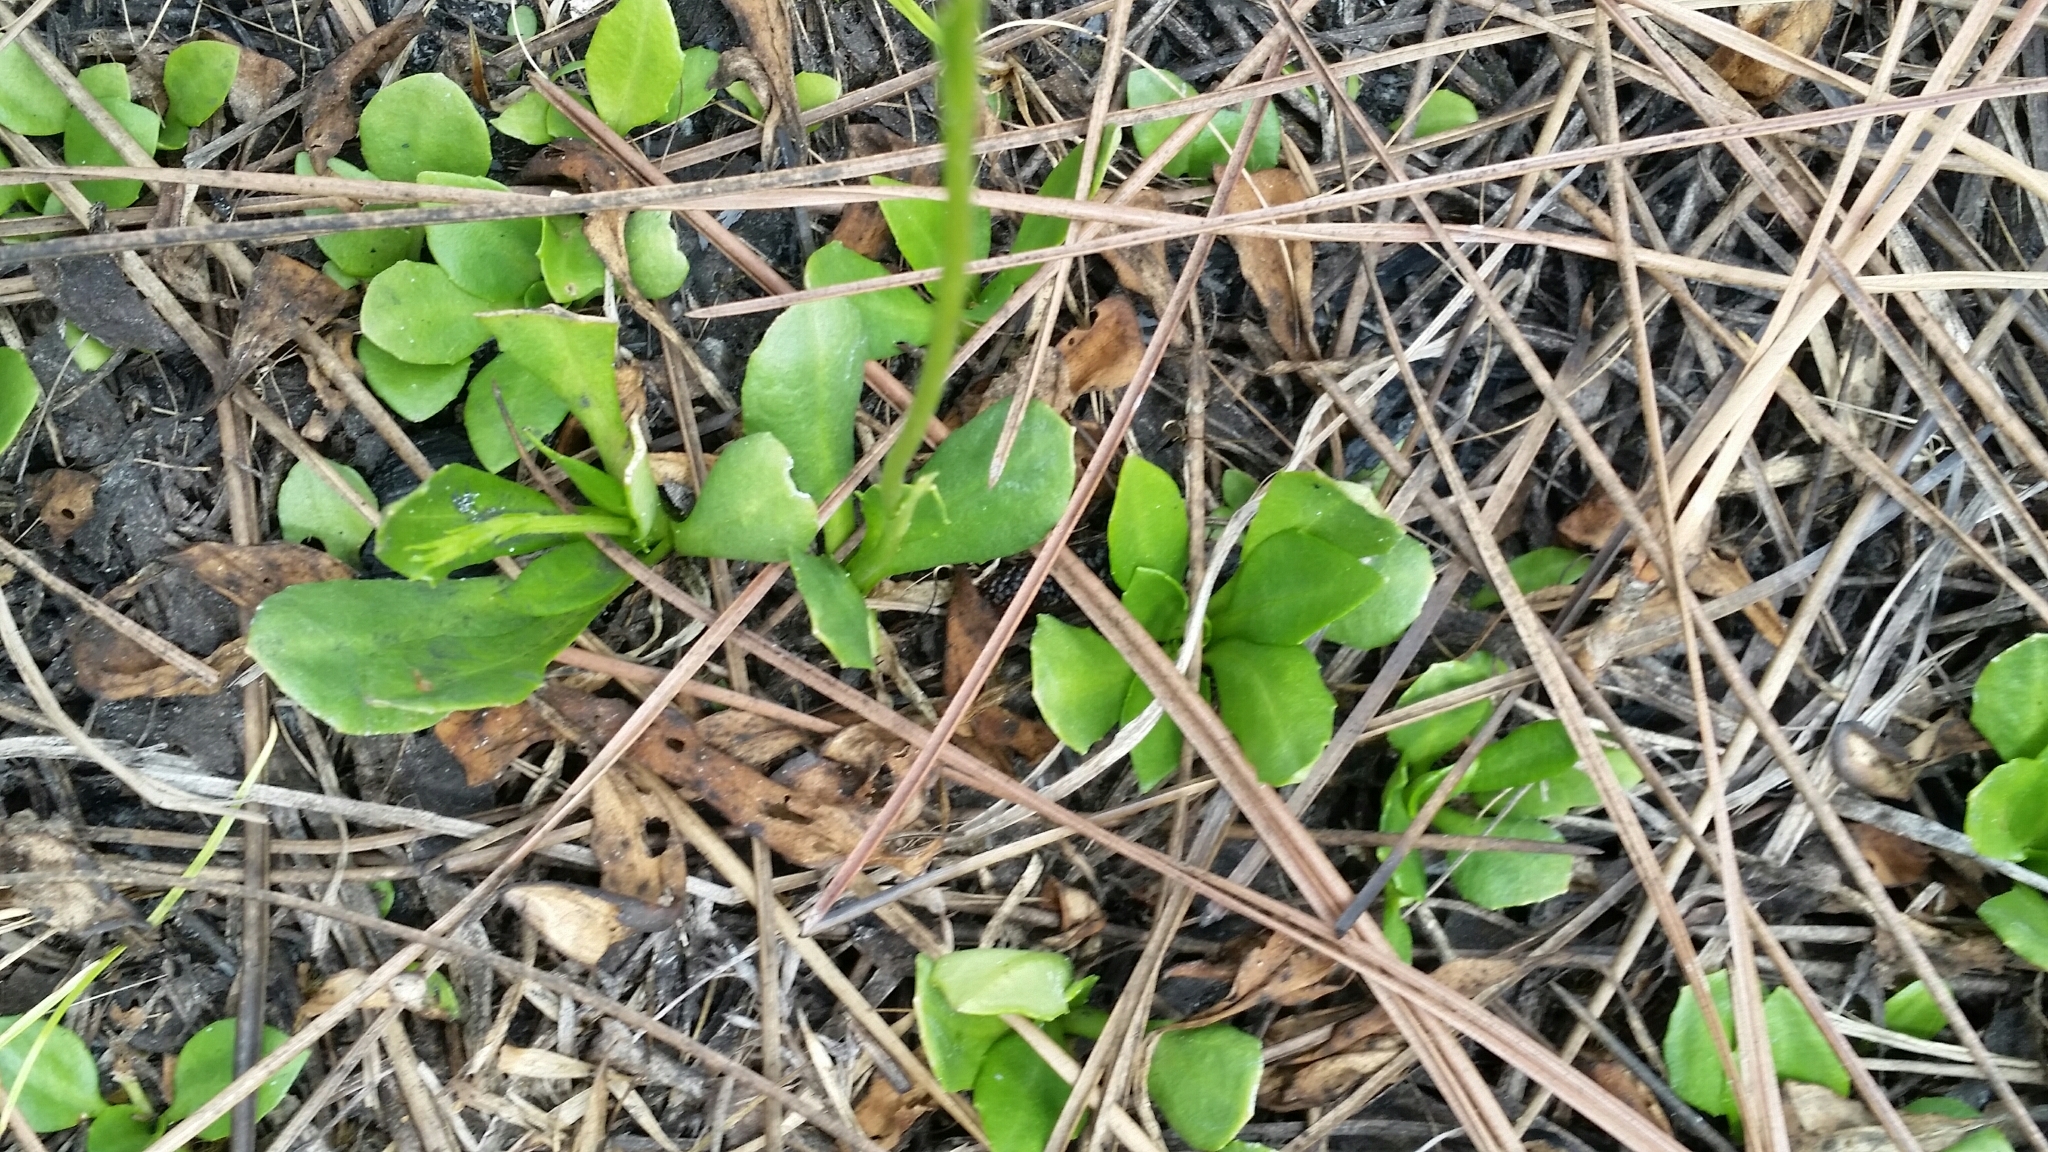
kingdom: Plantae
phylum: Tracheophyta
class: Magnoliopsida
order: Asterales
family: Asteraceae
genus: Erigeron
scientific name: Erigeron vernus
